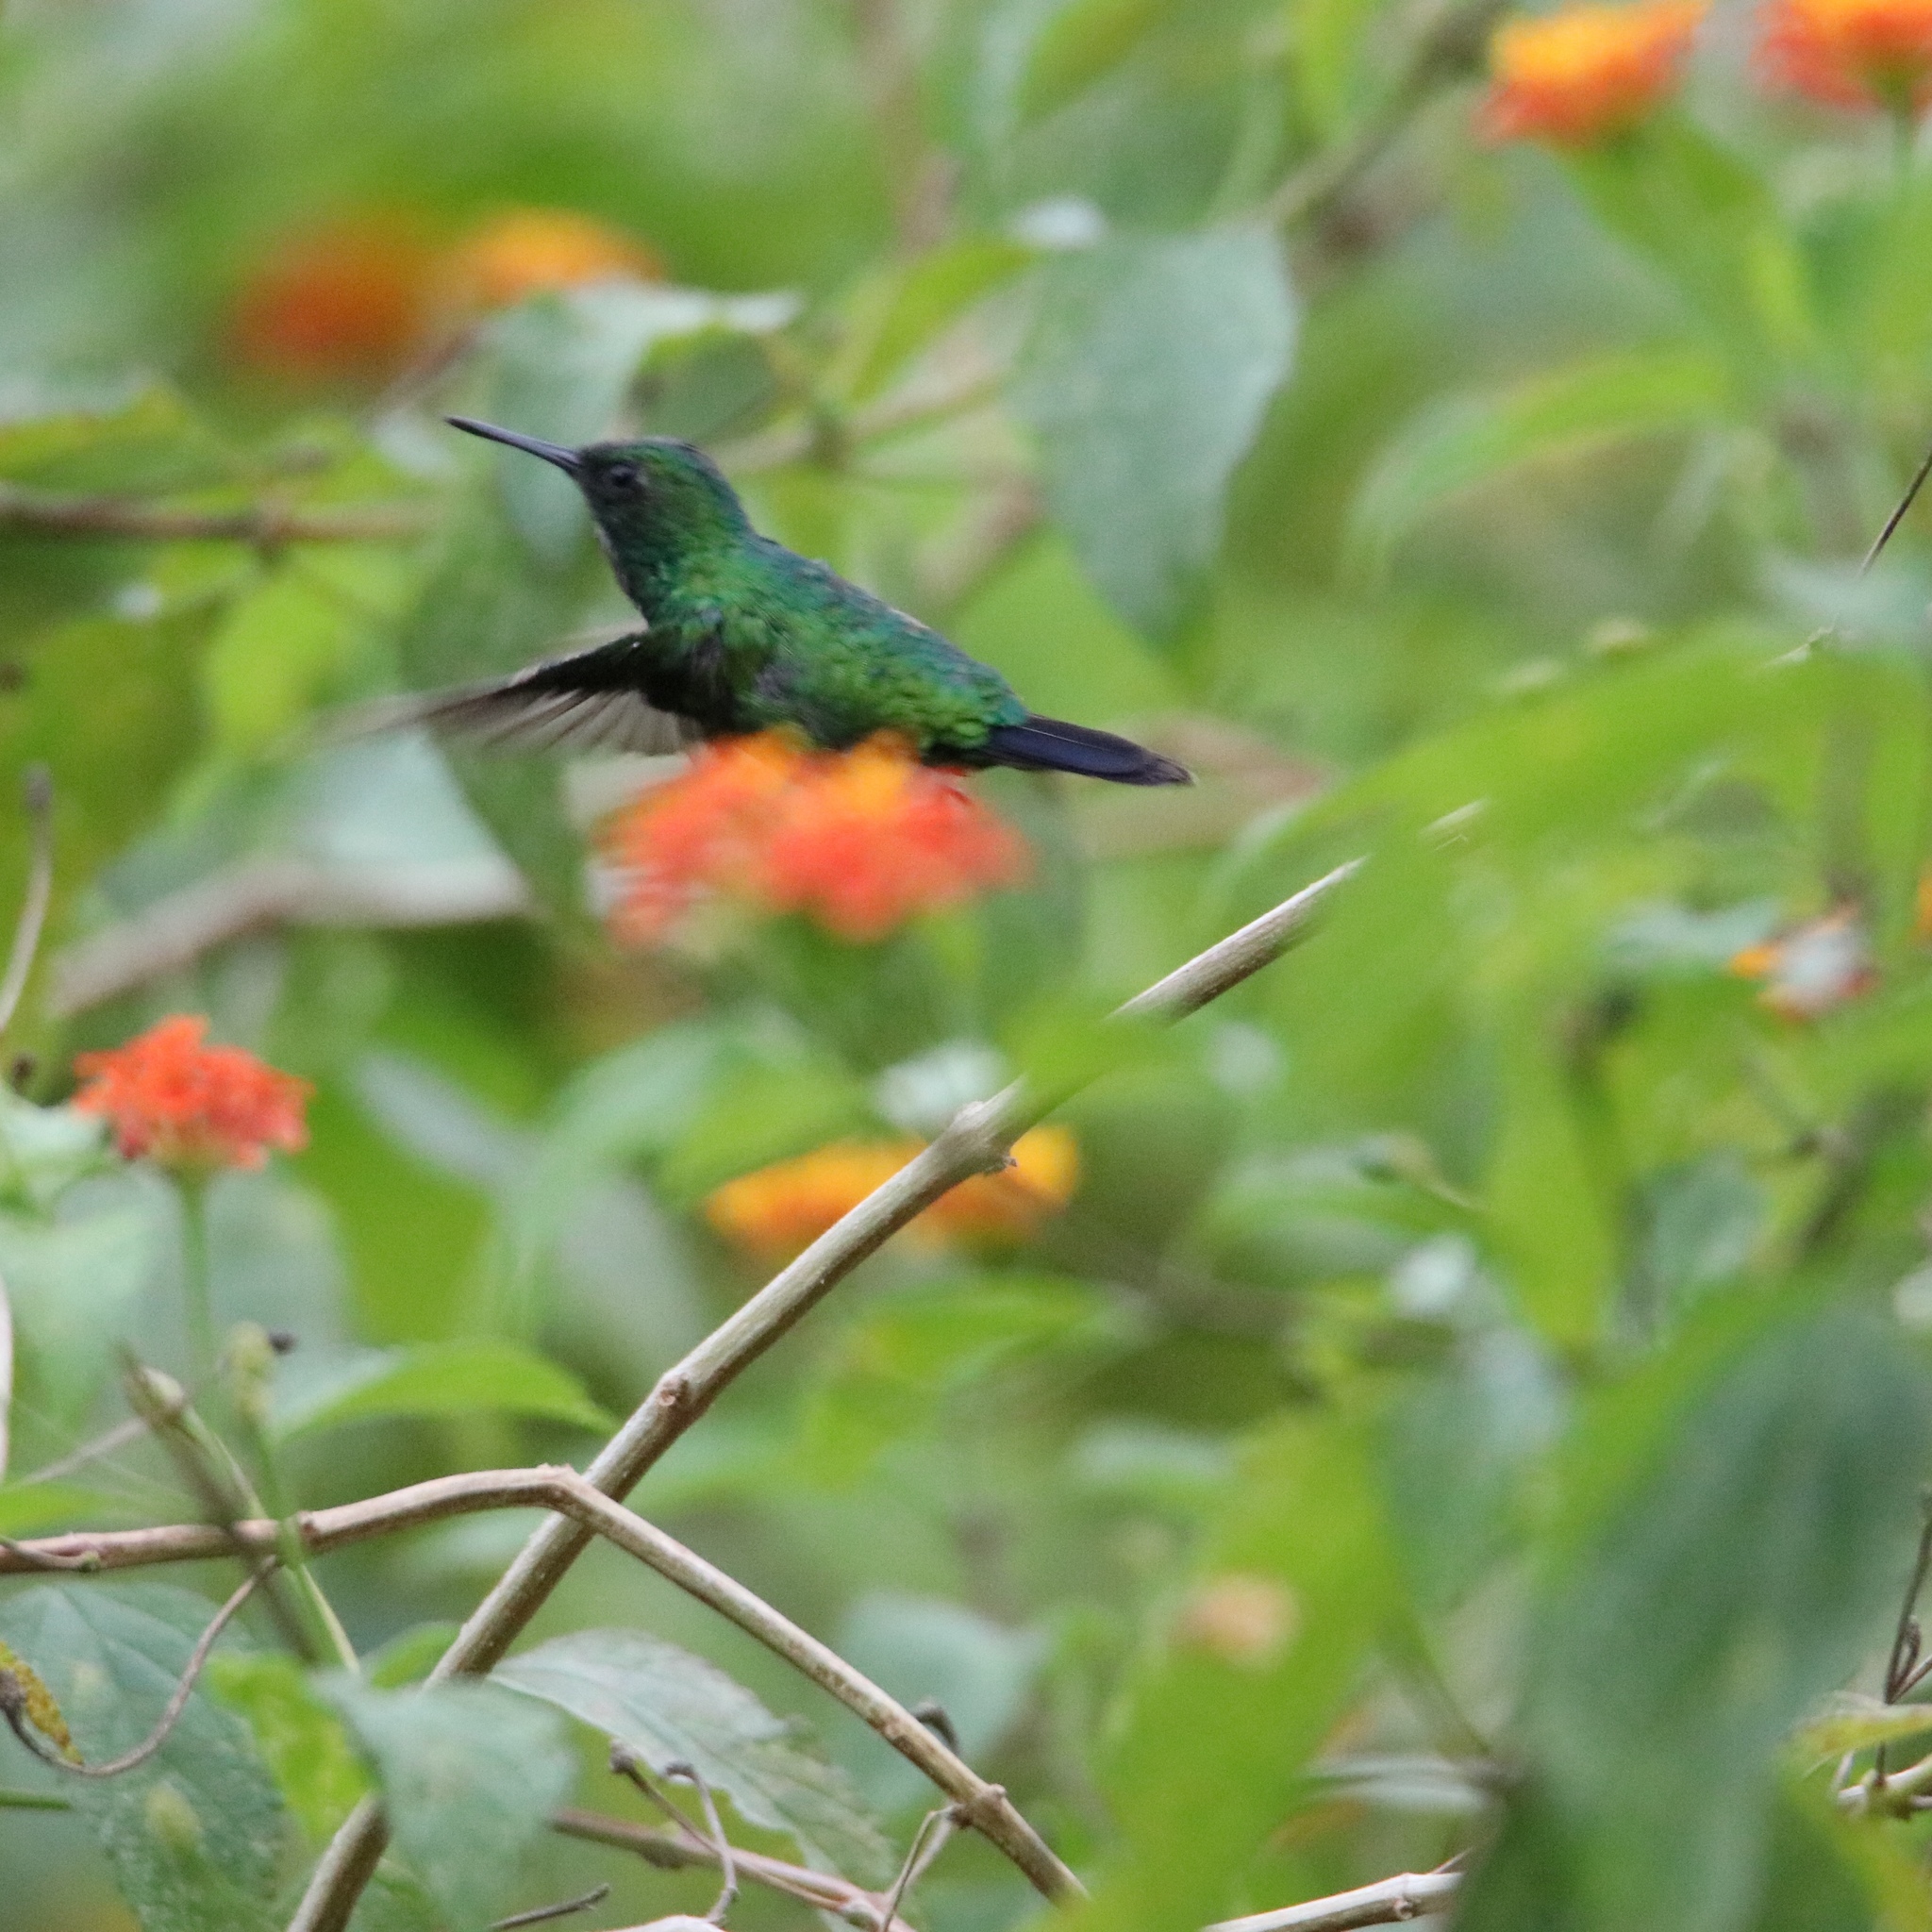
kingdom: Animalia
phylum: Chordata
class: Aves
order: Apodiformes
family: Trochilidae
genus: Chlorostilbon
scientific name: Chlorostilbon assimilis
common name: Garden emerald
